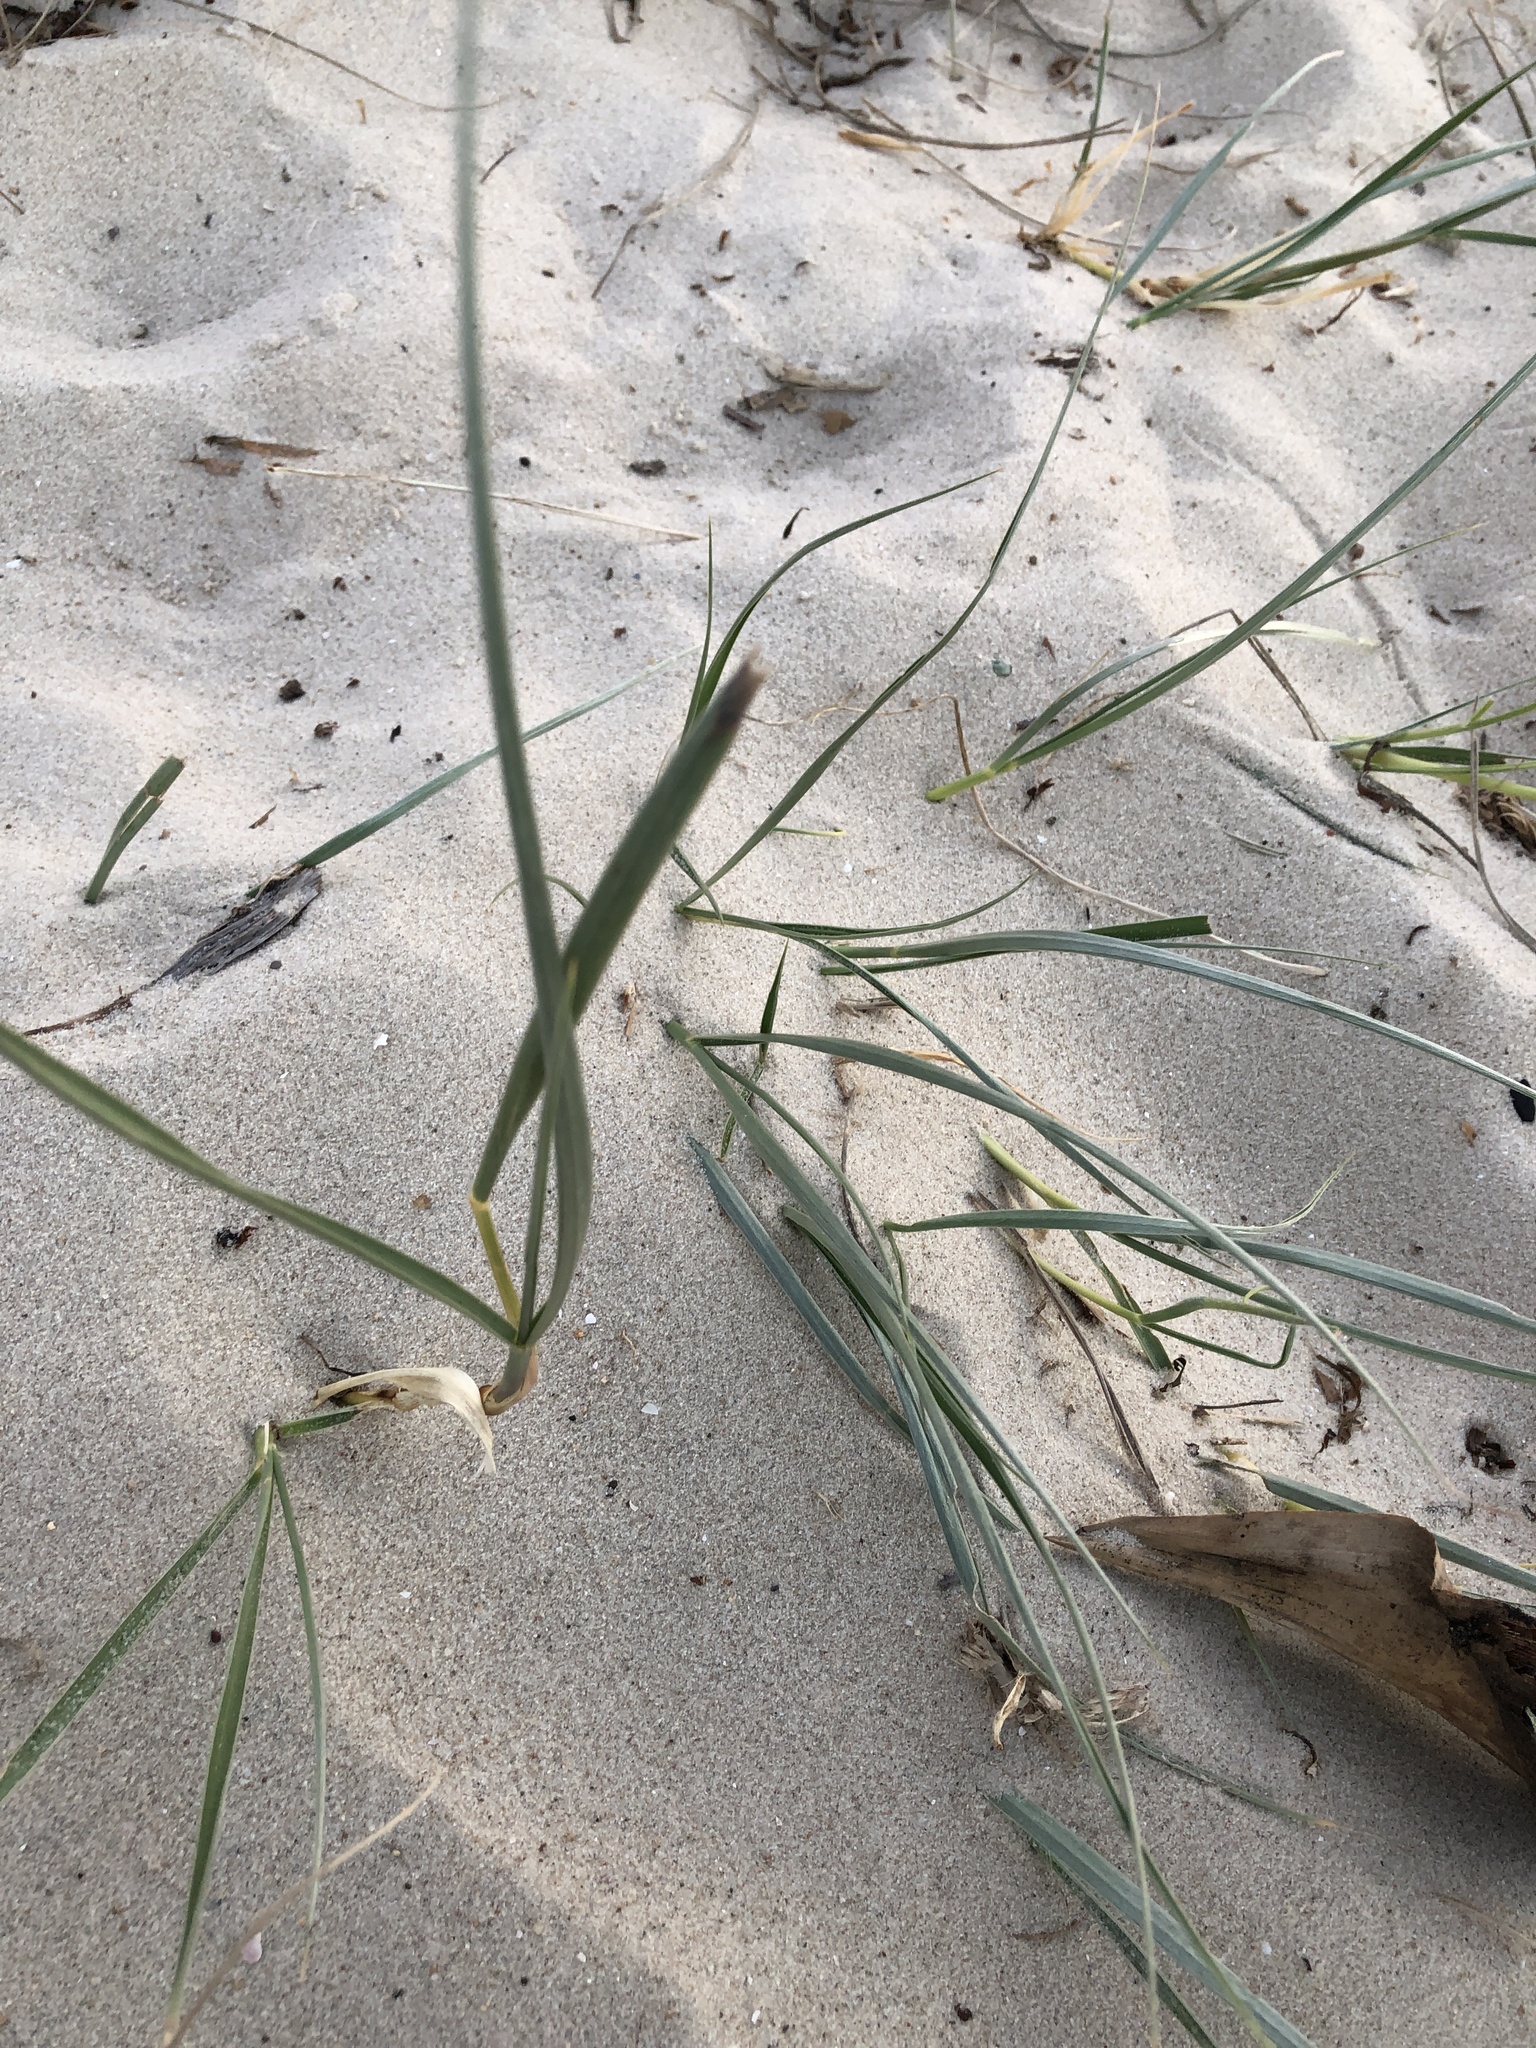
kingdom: Plantae
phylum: Tracheophyta
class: Liliopsida
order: Poales
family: Poaceae
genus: Spinifex
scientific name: Spinifex sericeus
